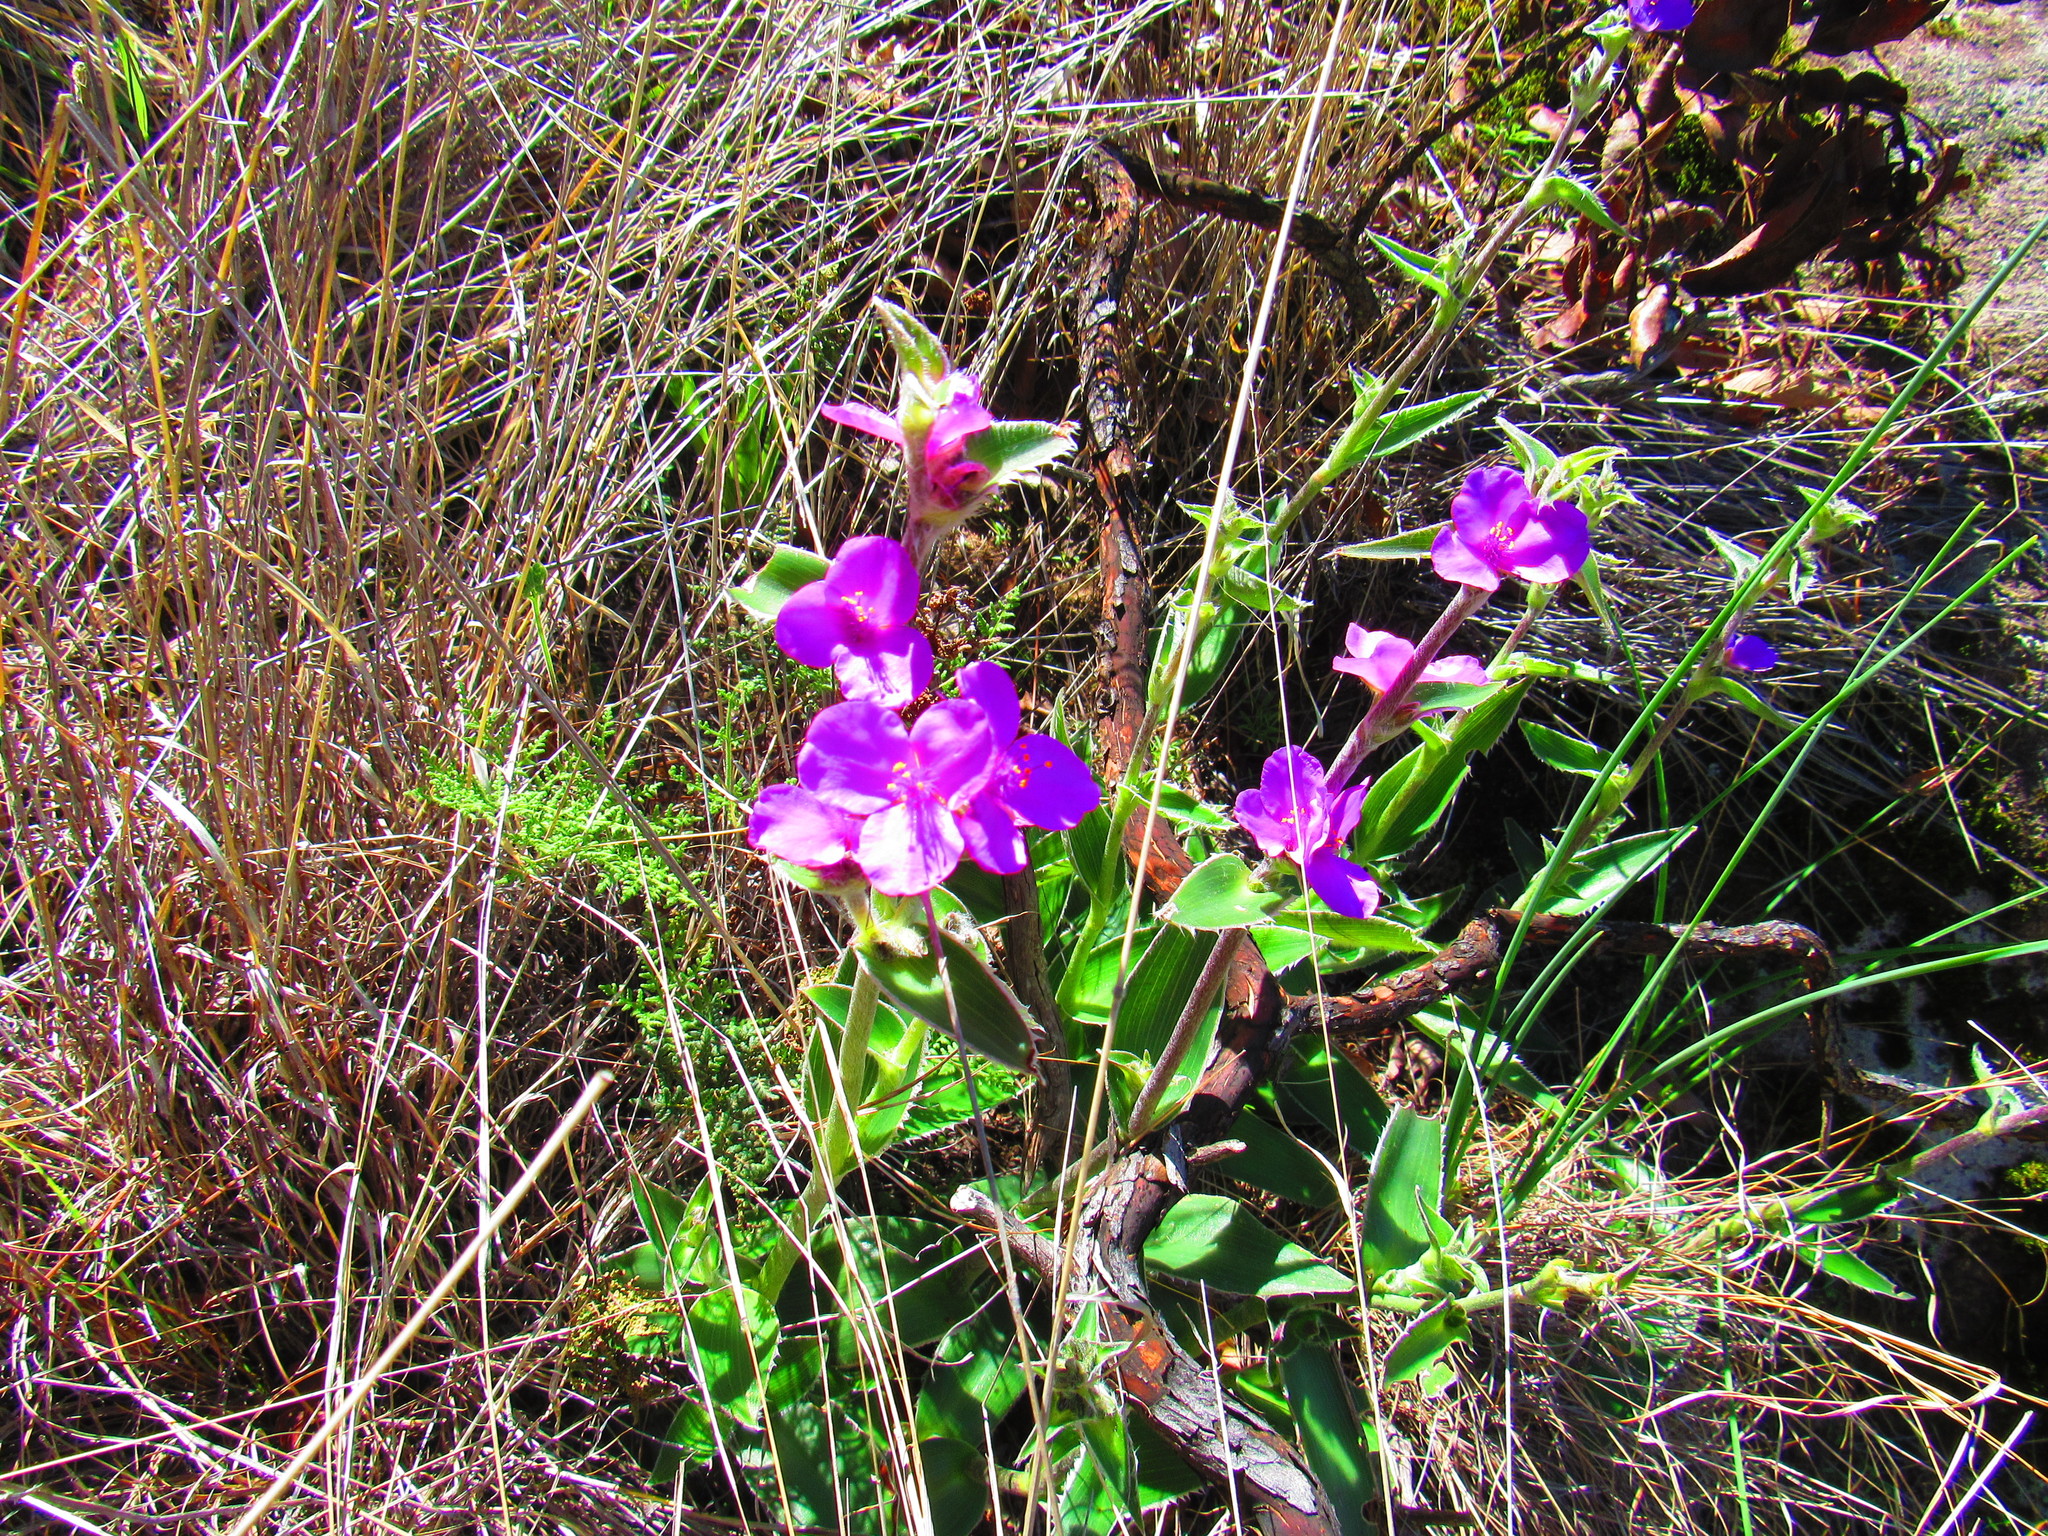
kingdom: Plantae
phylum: Tracheophyta
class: Liliopsida
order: Commelinales
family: Commelinaceae
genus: Tradescantia
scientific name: Tradescantia crassifolia
